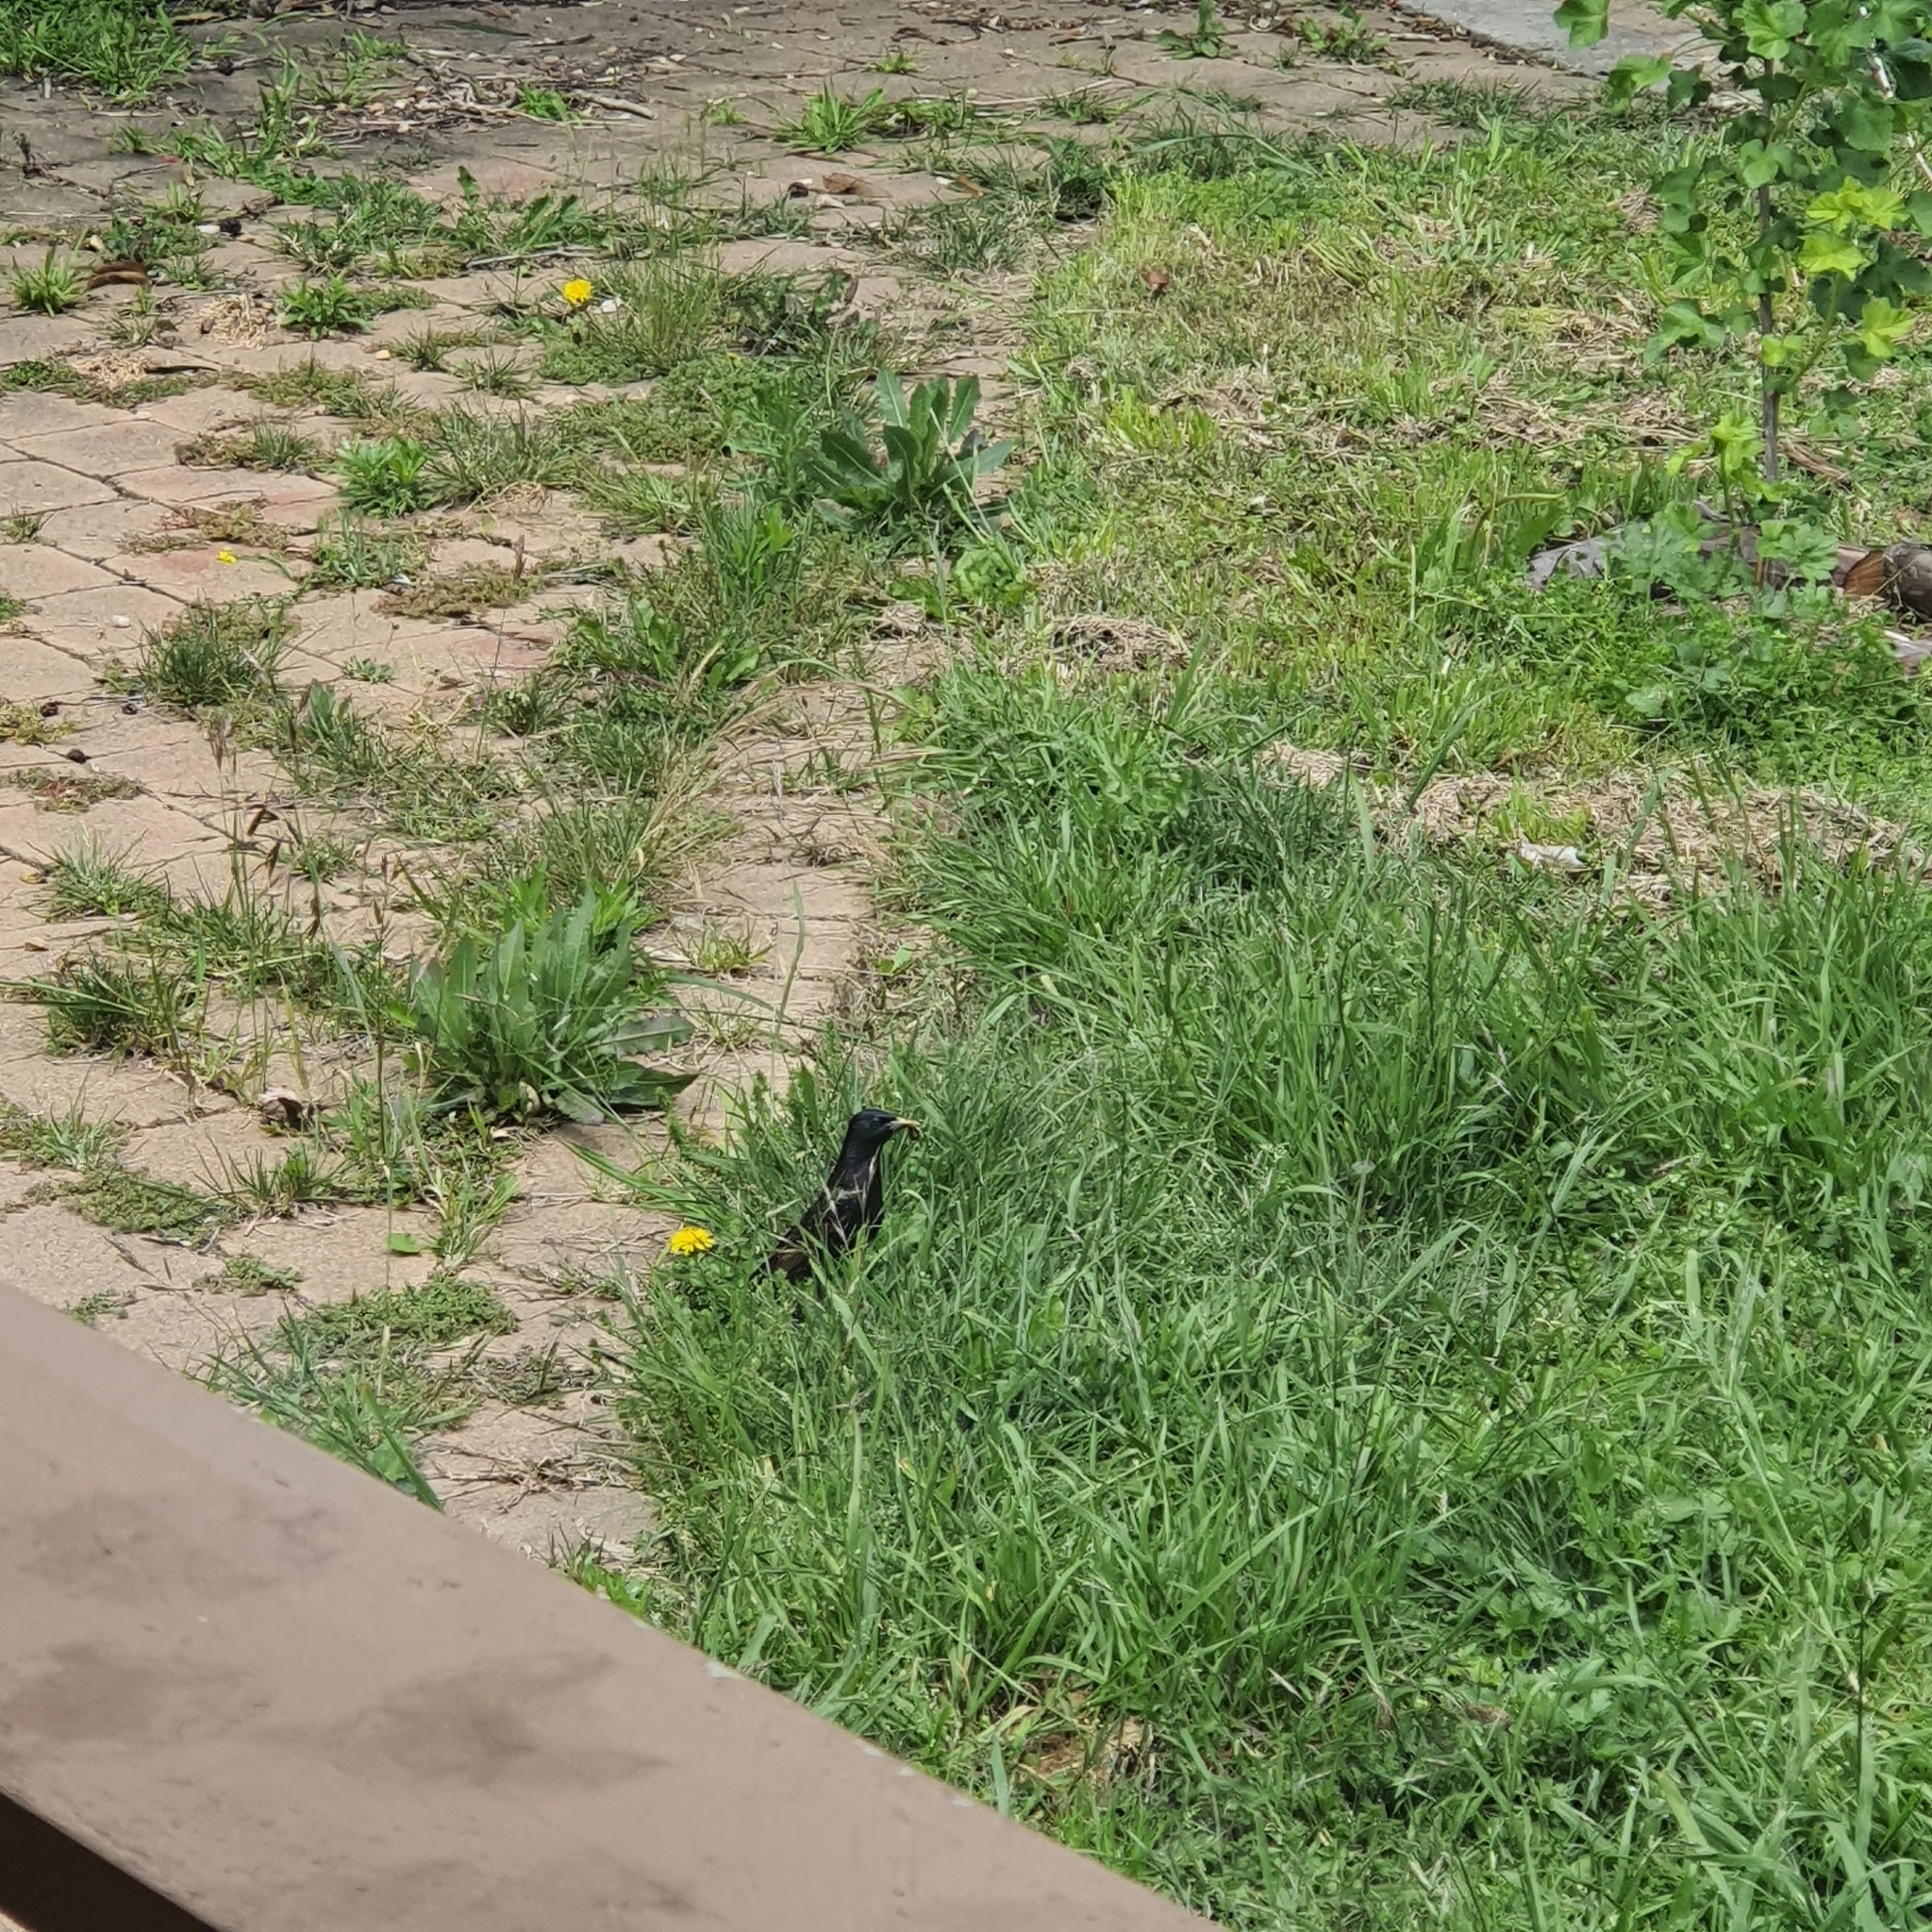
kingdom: Animalia
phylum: Chordata
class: Aves
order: Passeriformes
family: Sturnidae
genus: Sturnus
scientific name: Sturnus vulgaris
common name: Common starling
